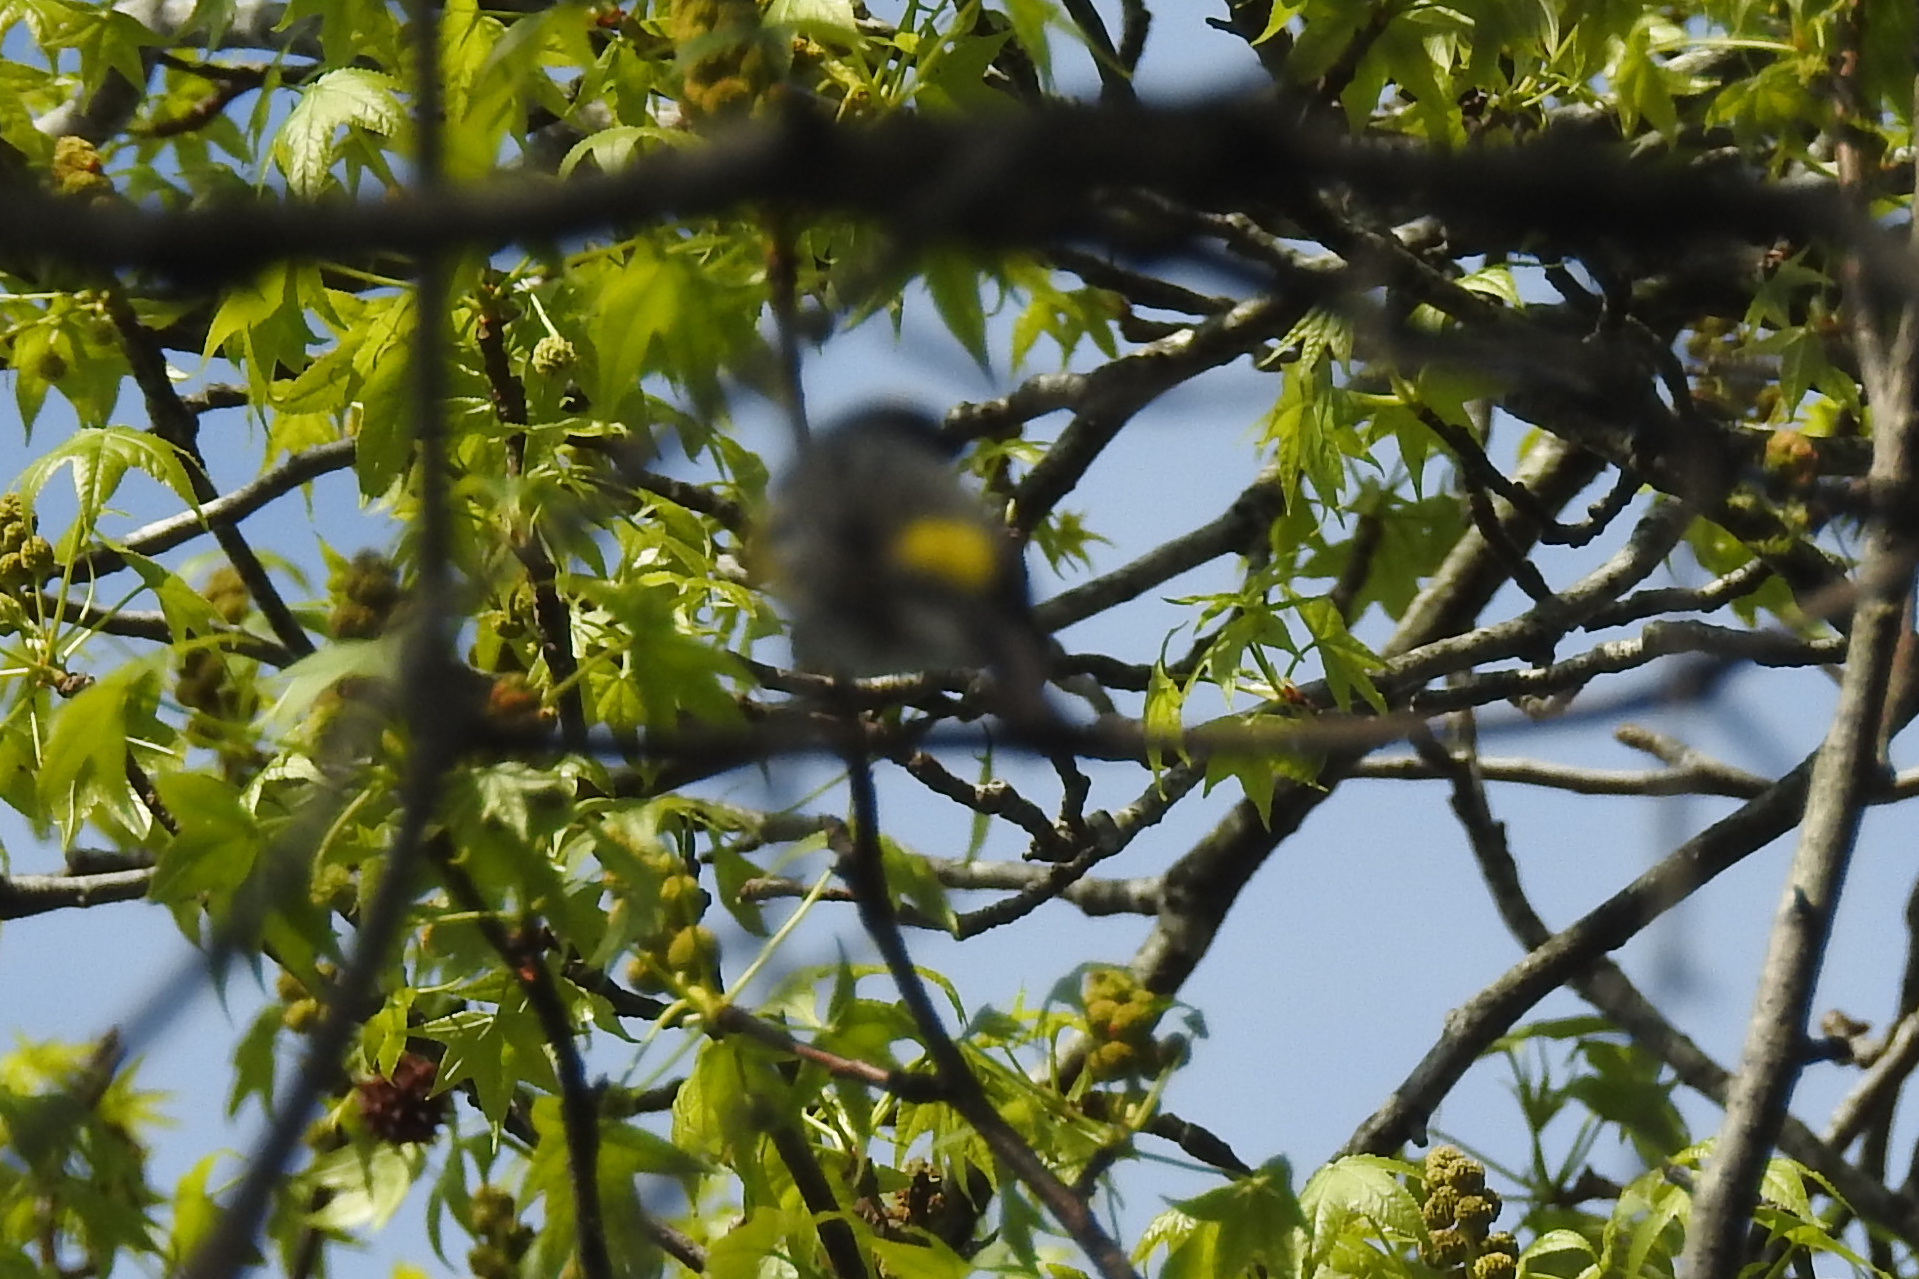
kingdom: Animalia
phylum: Chordata
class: Aves
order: Passeriformes
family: Parulidae
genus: Setophaga
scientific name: Setophaga coronata
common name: Myrtle warbler
